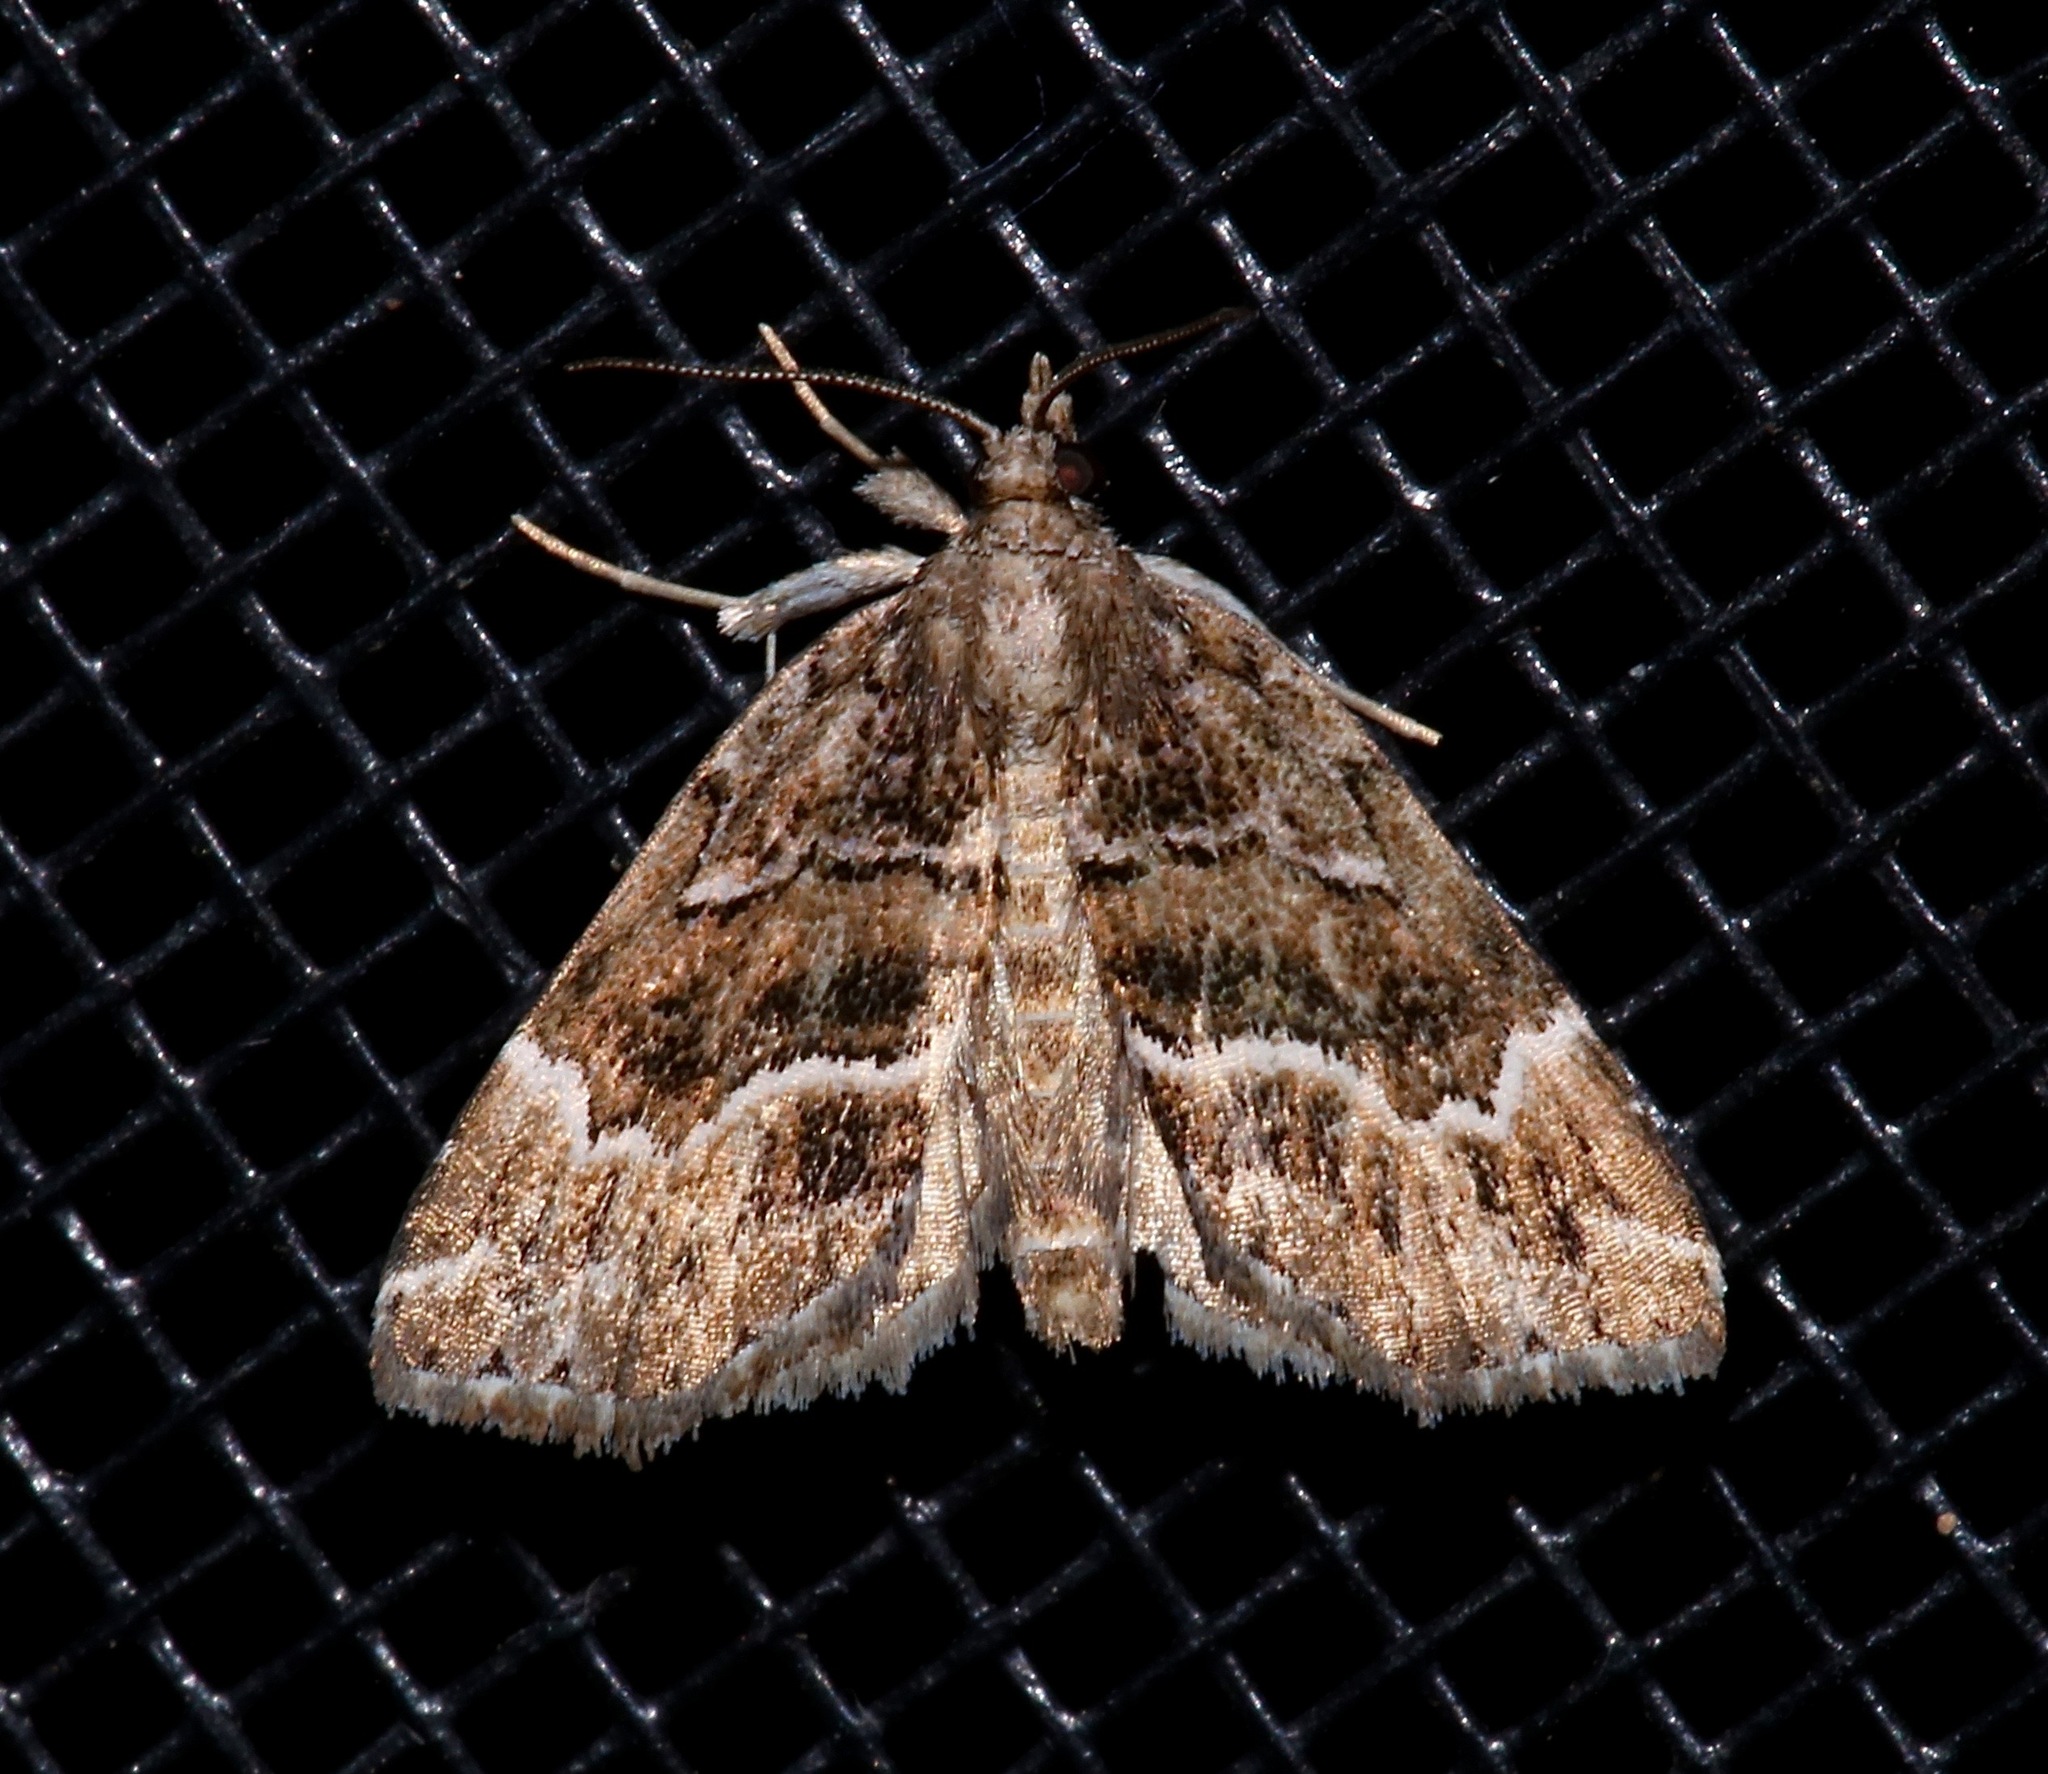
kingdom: Animalia
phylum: Arthropoda
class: Insecta
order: Lepidoptera
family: Erebidae
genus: Cutina
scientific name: Cutina arcuata
